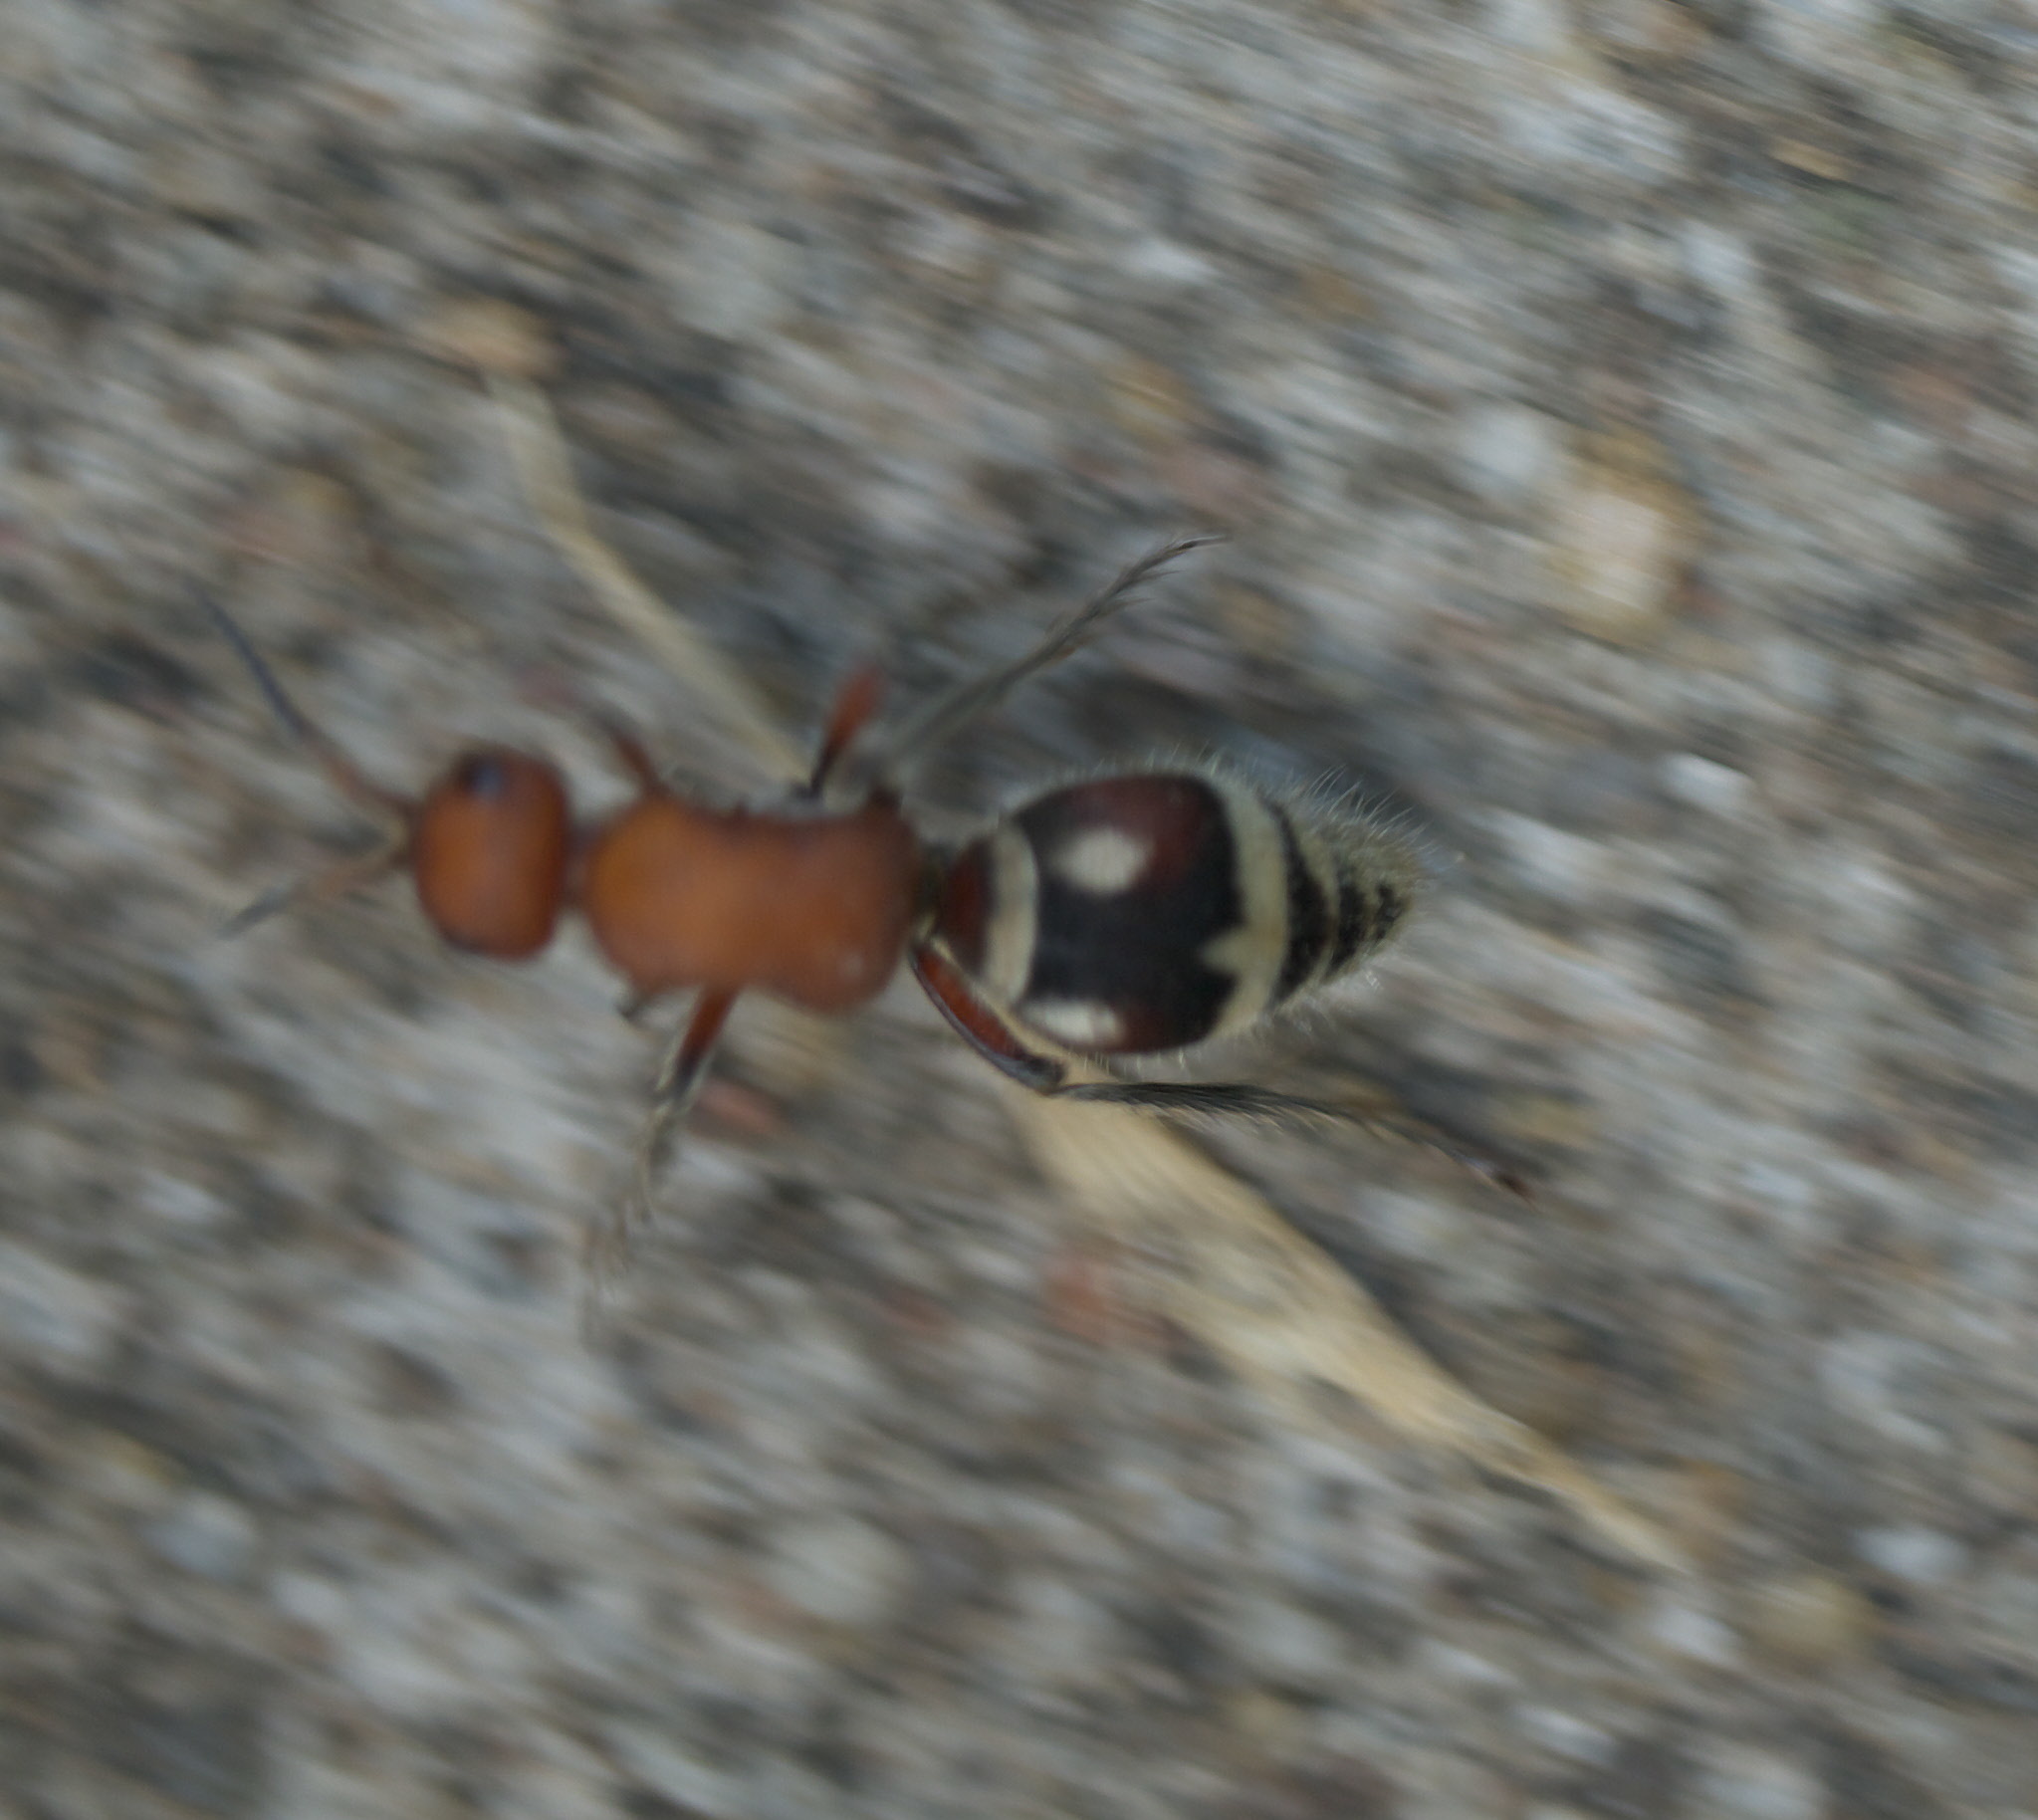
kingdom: Animalia
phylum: Arthropoda
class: Insecta
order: Hymenoptera
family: Mutillidae
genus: Timulla
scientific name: Timulla
